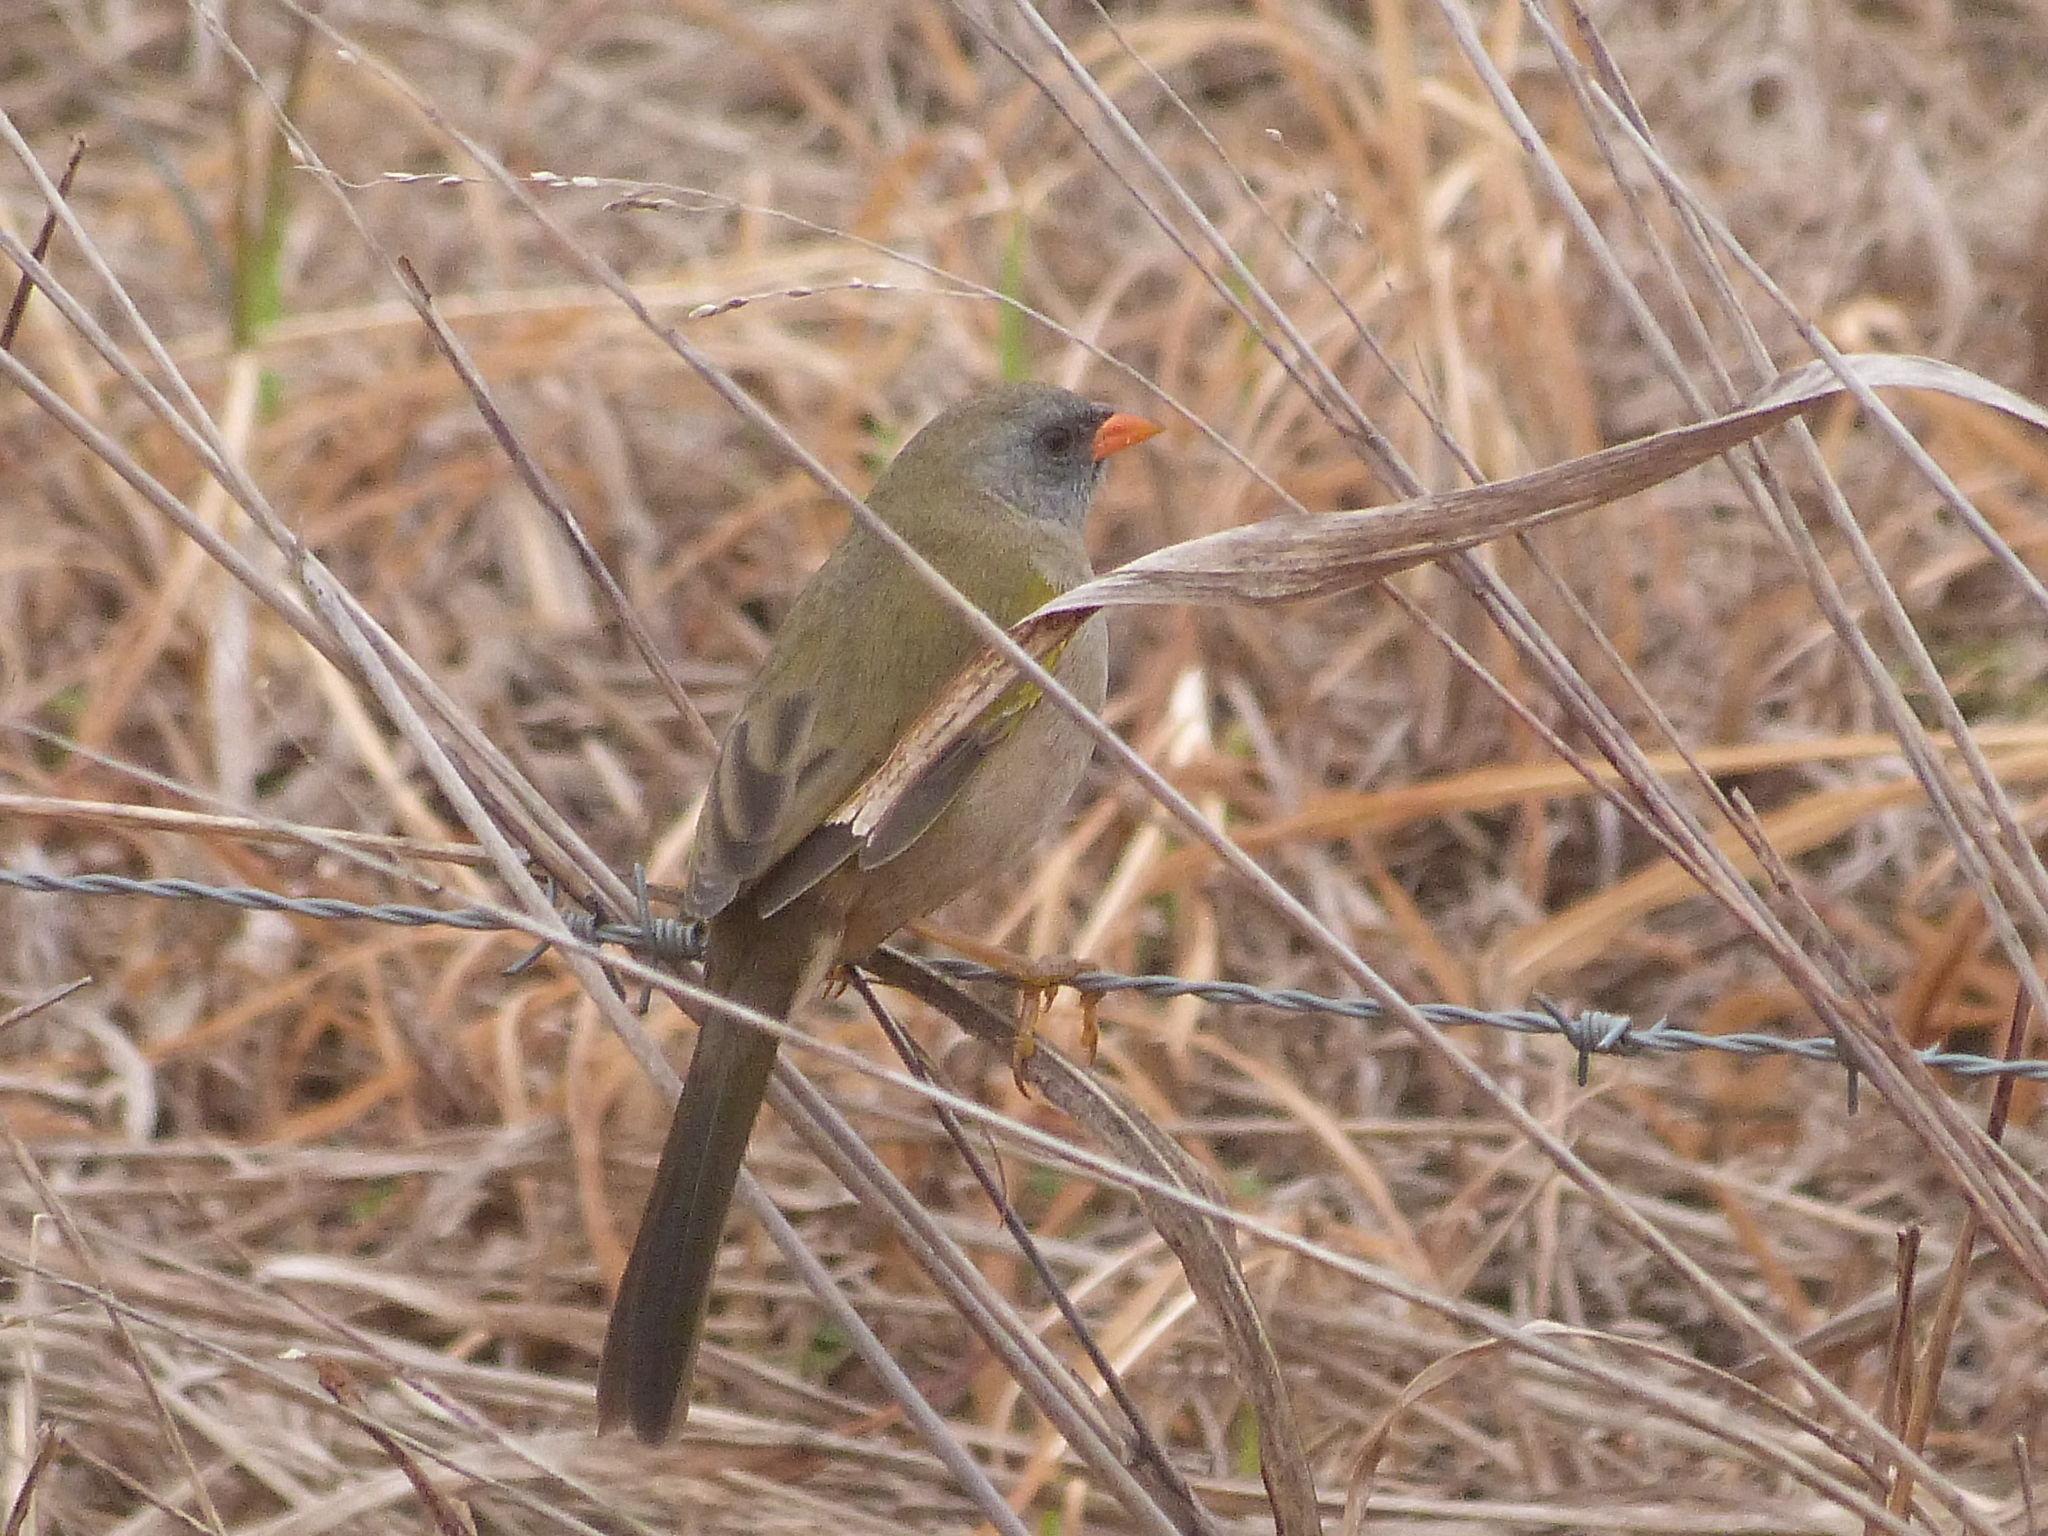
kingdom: Animalia
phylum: Chordata
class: Aves
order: Passeriformes
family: Thraupidae
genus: Embernagra
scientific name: Embernagra platensis
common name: Pampa finch
